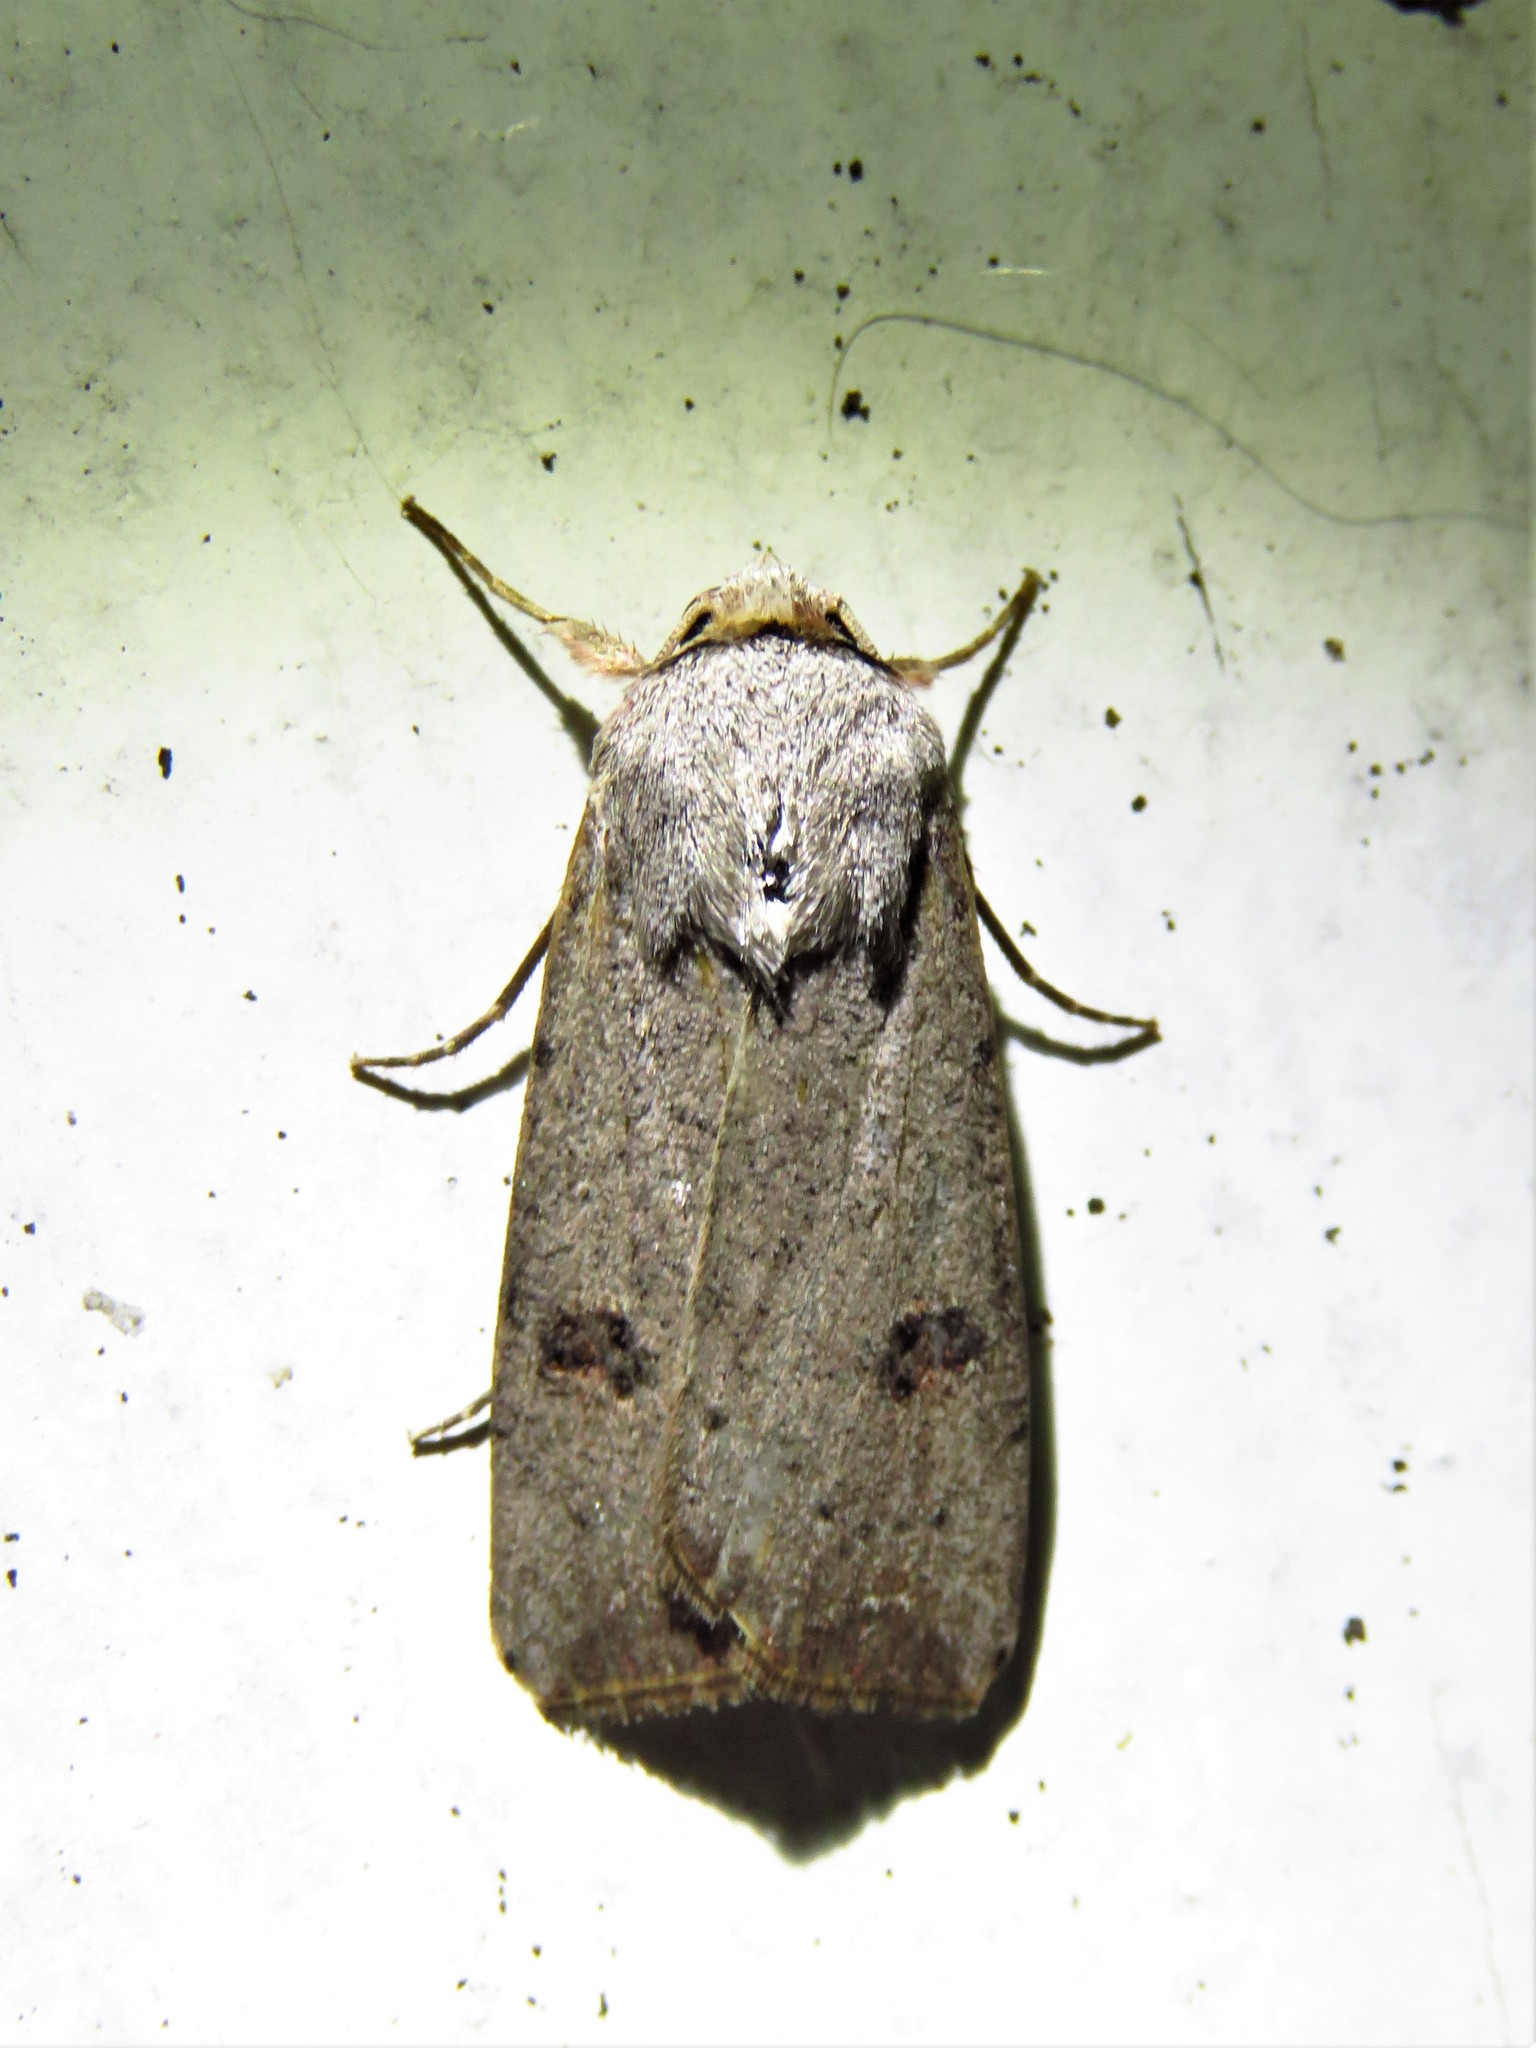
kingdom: Animalia
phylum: Arthropoda
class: Insecta
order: Lepidoptera
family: Noctuidae
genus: Anicla
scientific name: Anicla infecta
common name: Green cutworm
